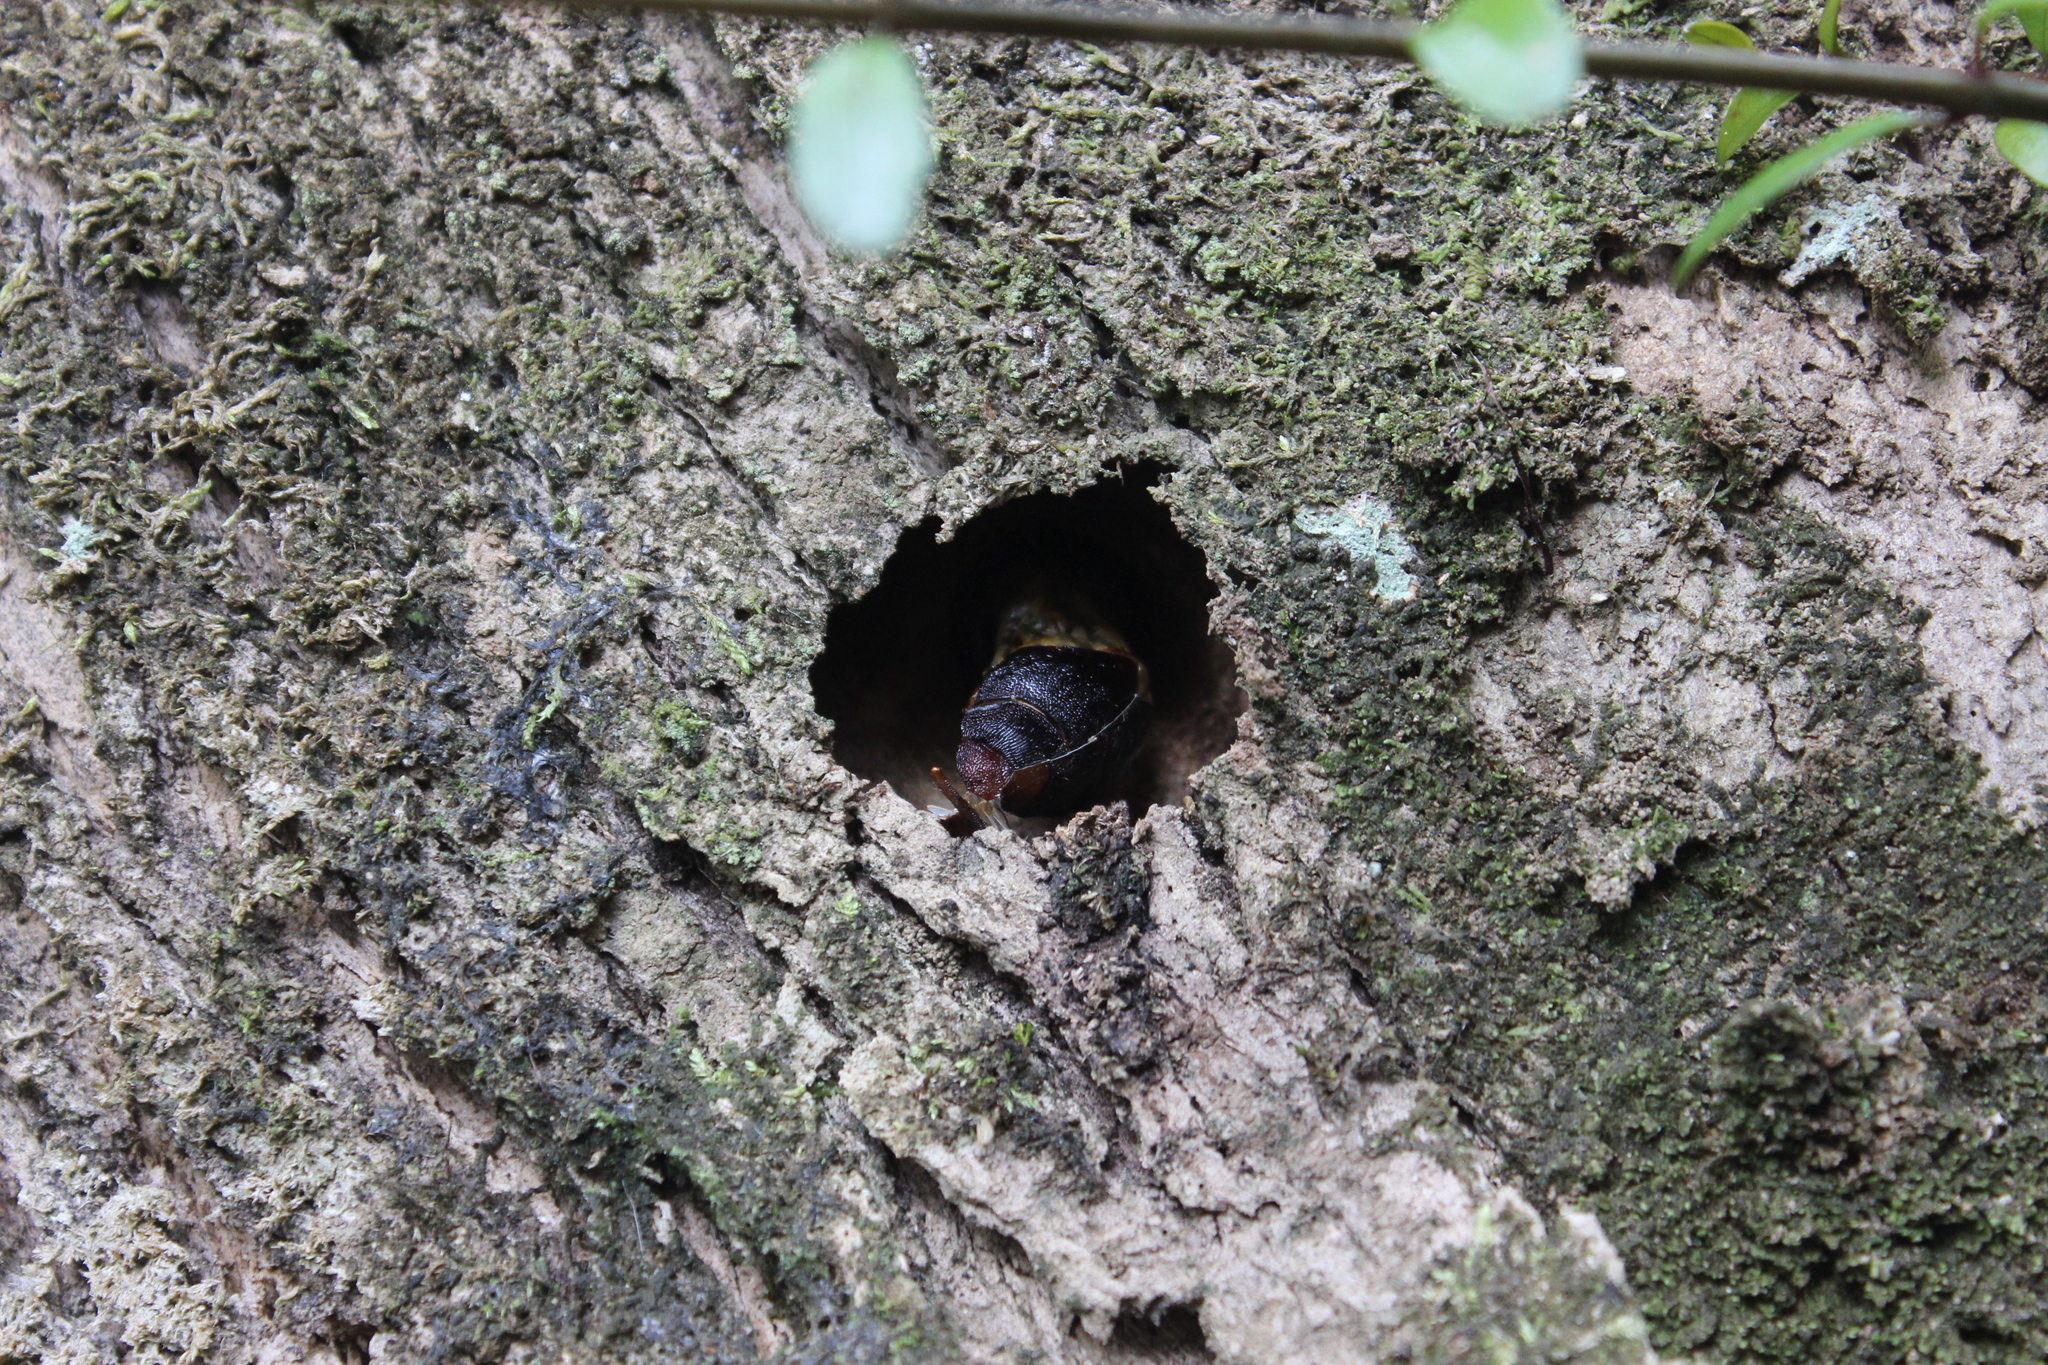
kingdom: Animalia
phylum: Arthropoda
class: Insecta
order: Lepidoptera
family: Hepialidae
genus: Aenetus
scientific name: Aenetus virescens
